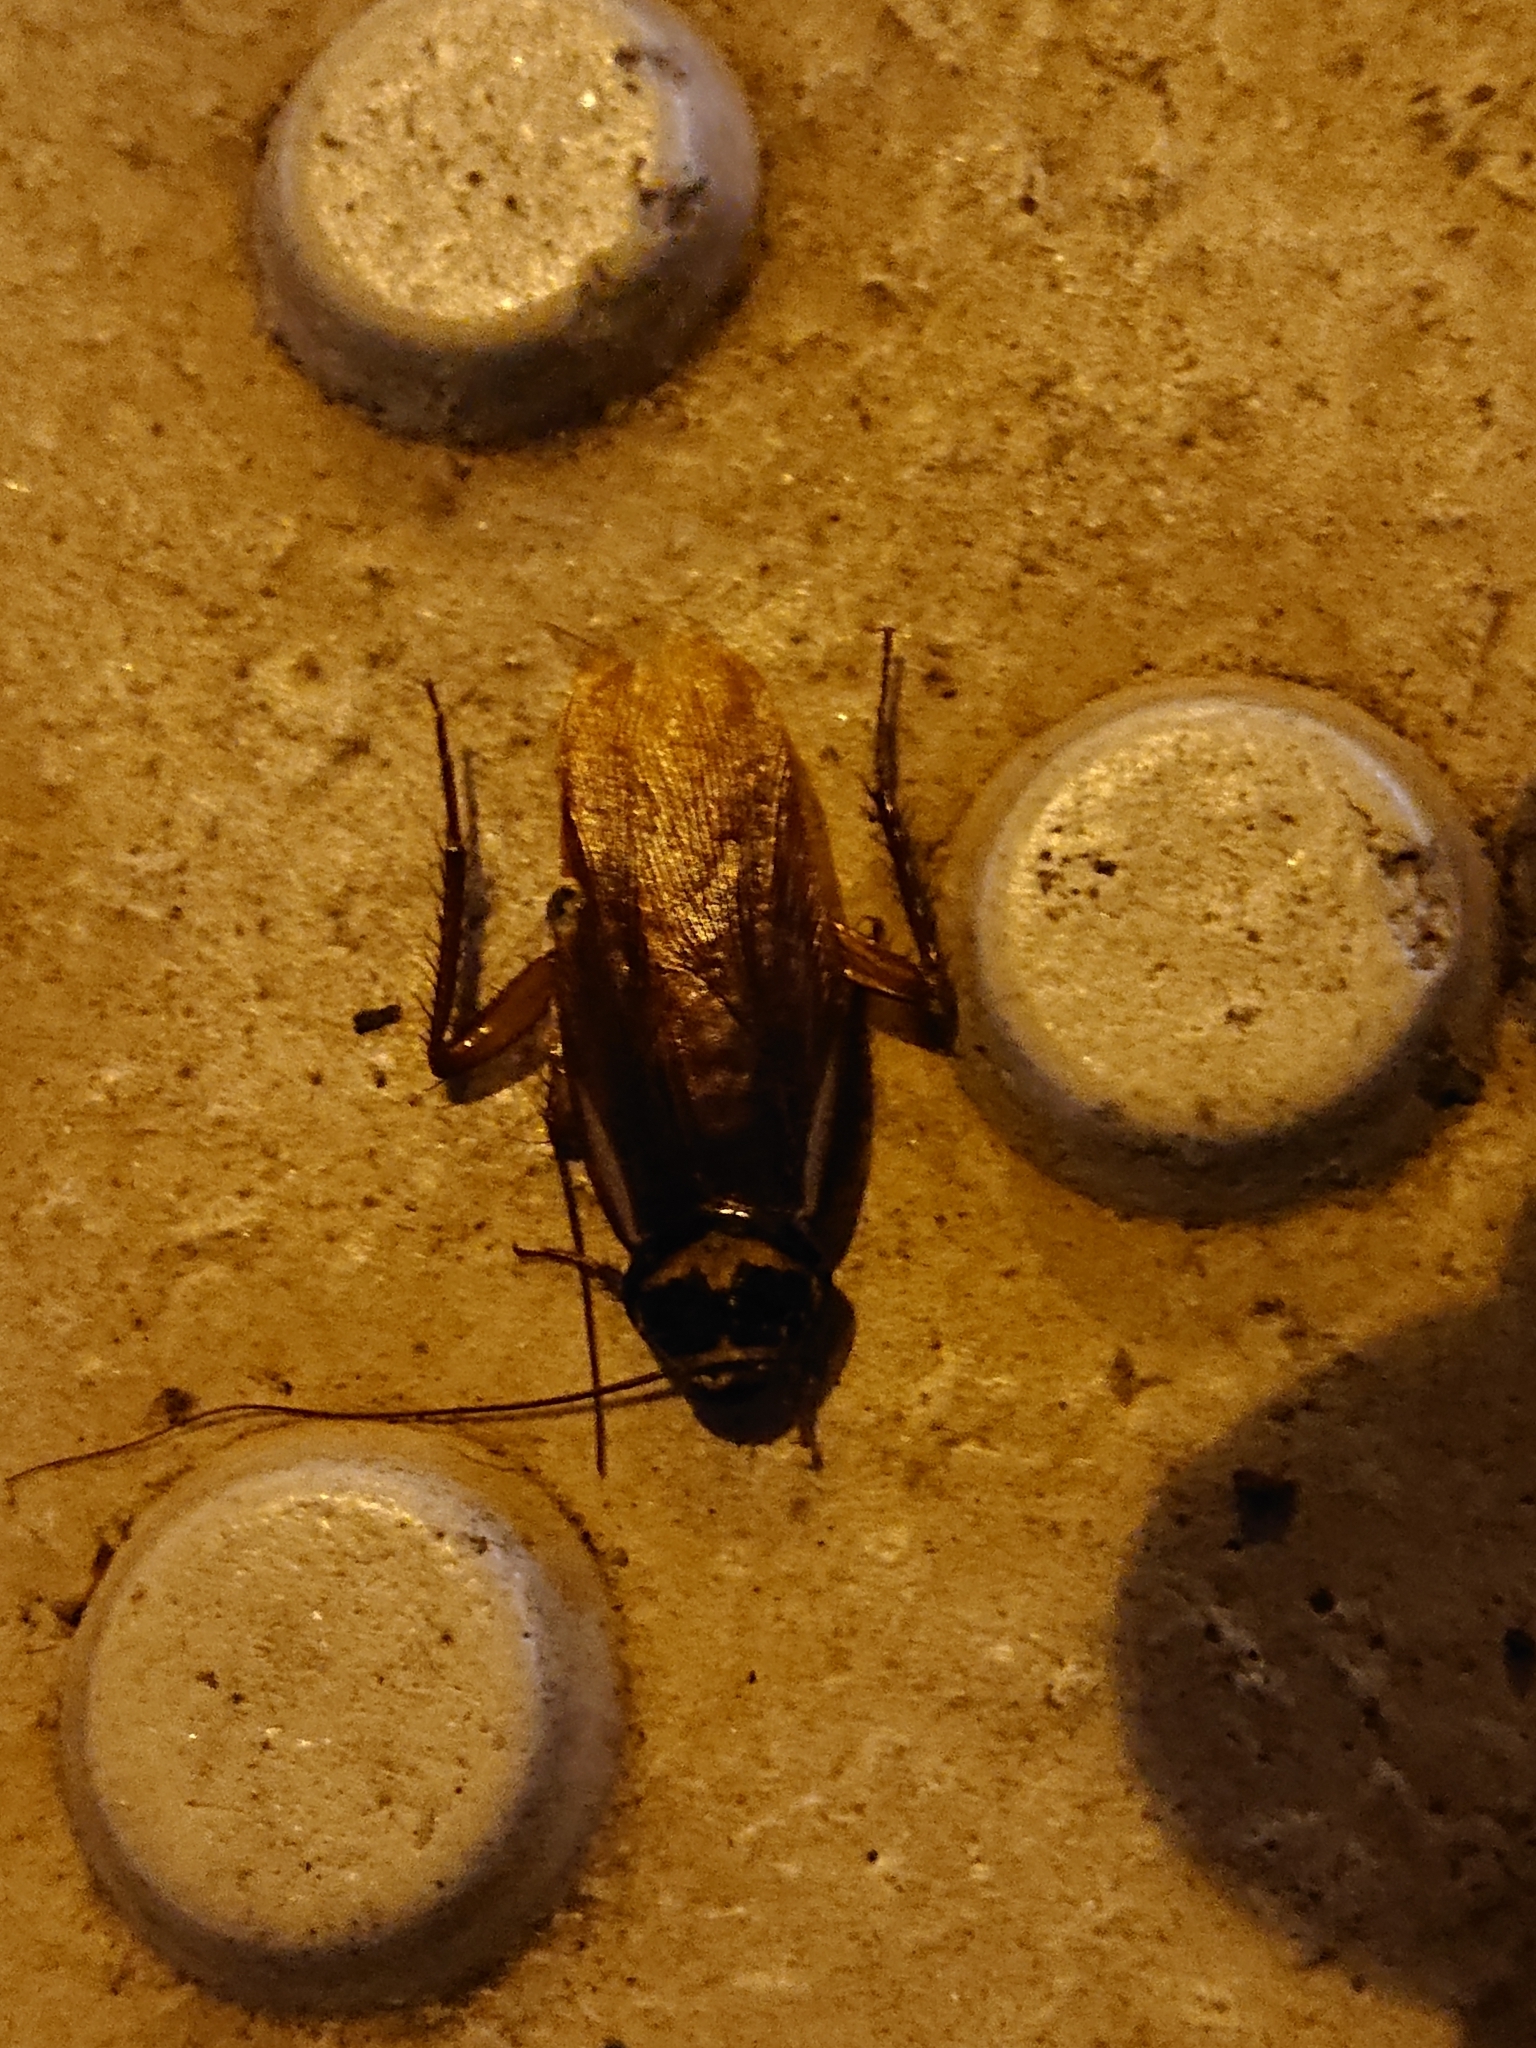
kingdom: Animalia
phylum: Arthropoda
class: Insecta
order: Blattodea
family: Blattidae
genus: Periplaneta
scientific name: Periplaneta australasiae
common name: Australian cockroach
